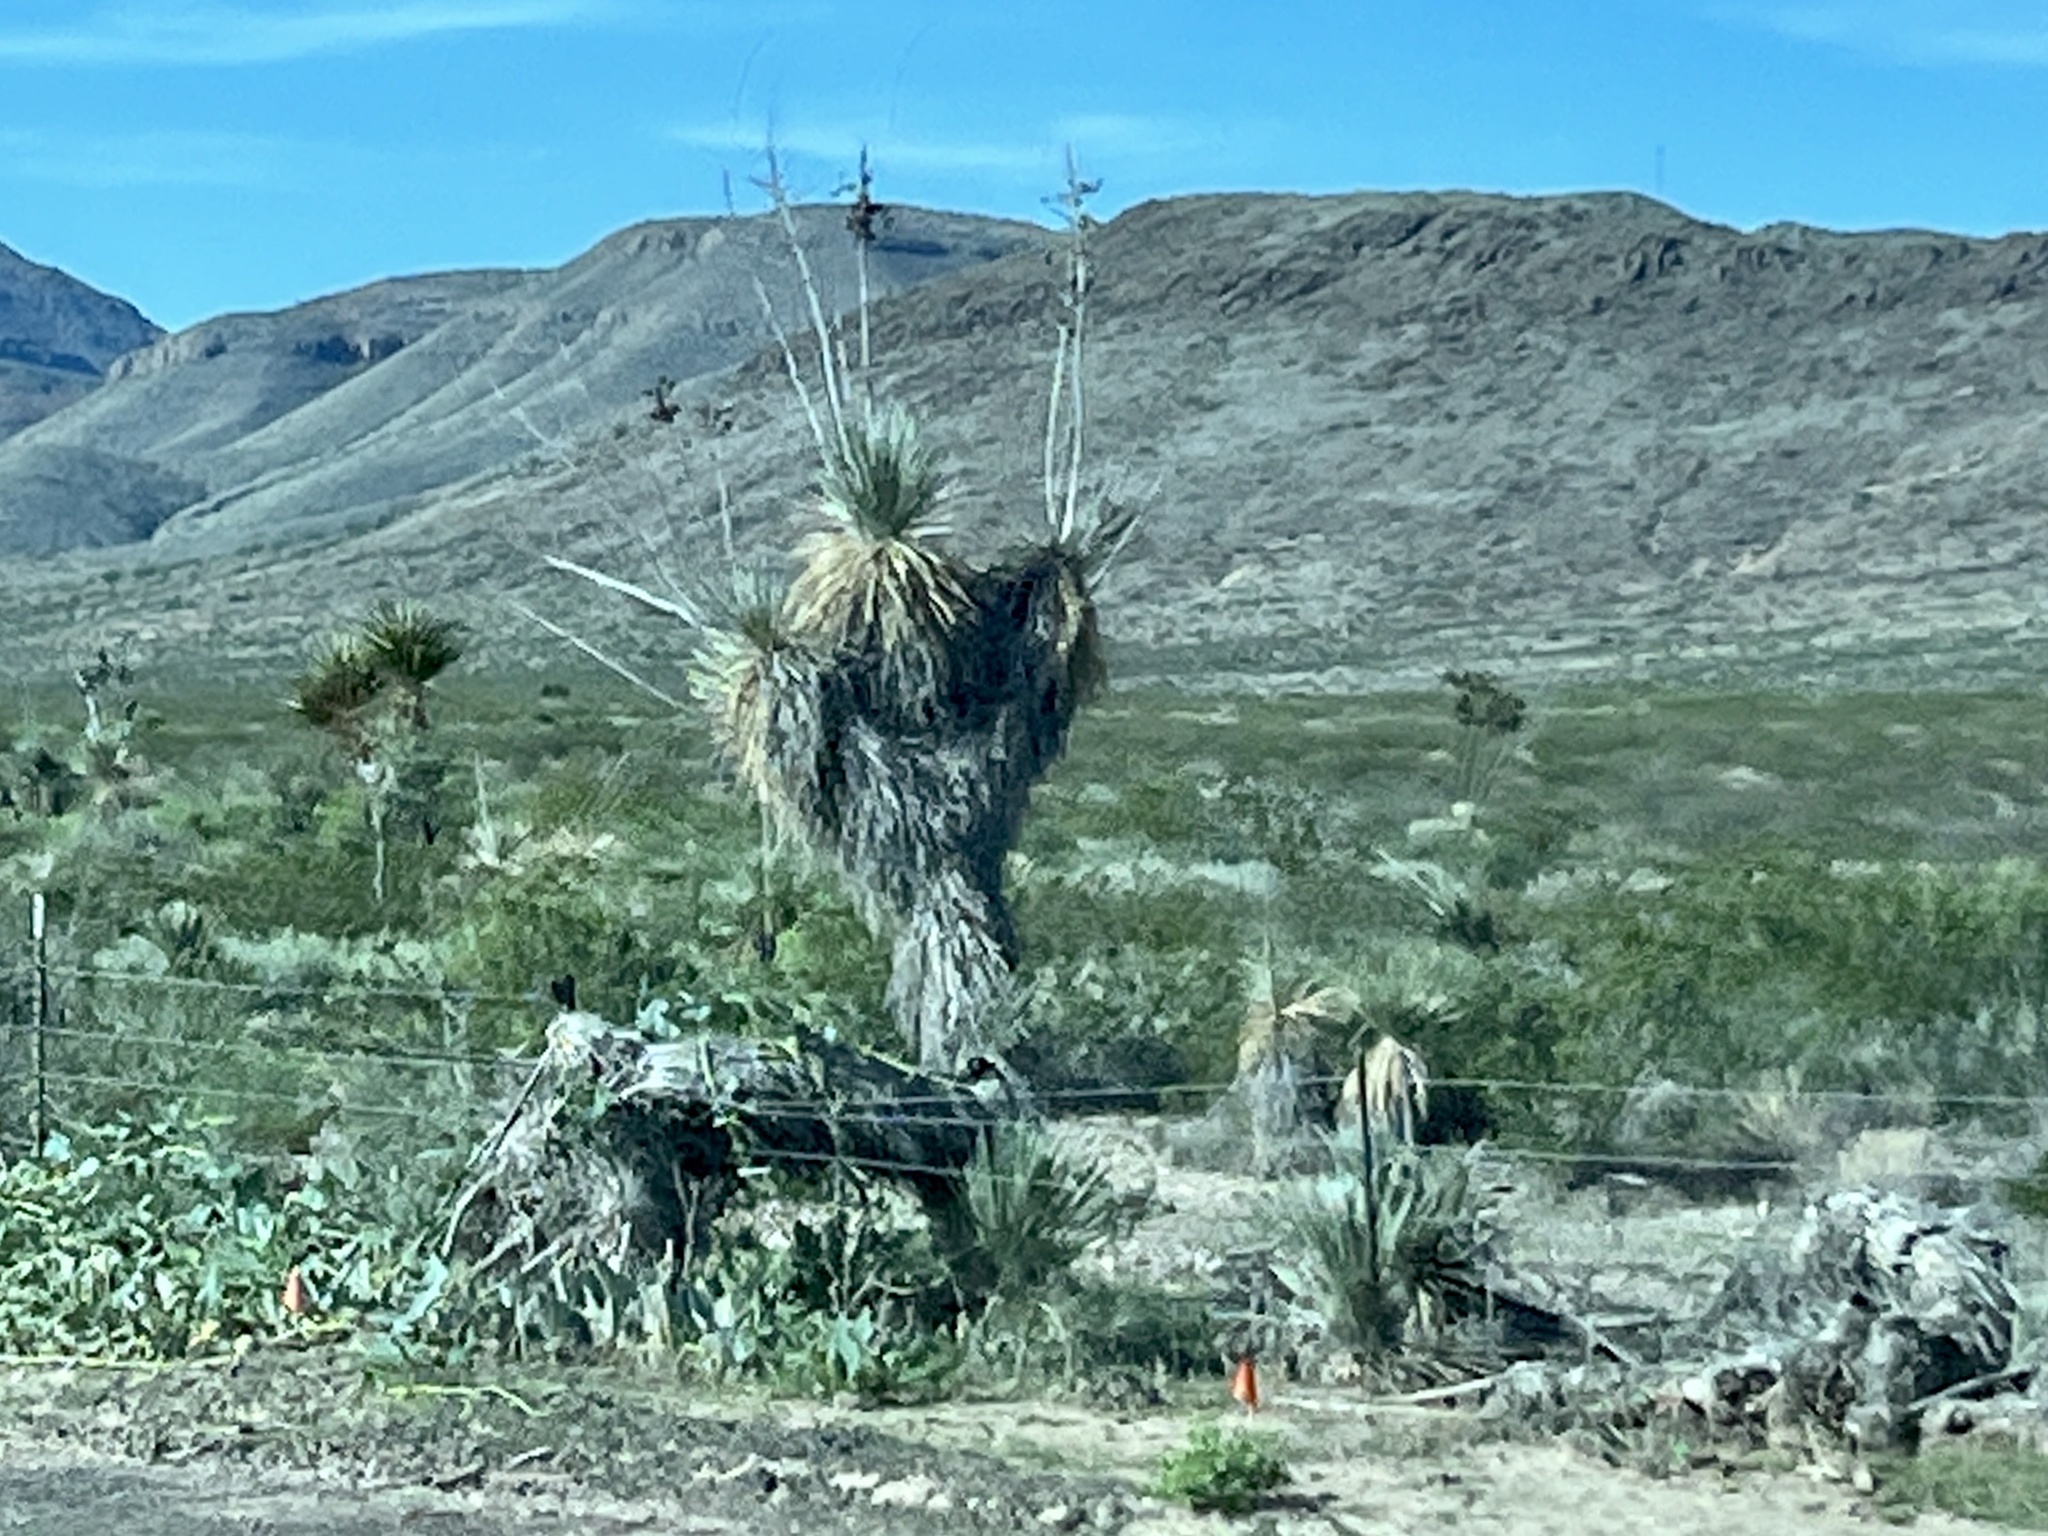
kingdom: Plantae
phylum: Tracheophyta
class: Liliopsida
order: Asparagales
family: Asparagaceae
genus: Yucca
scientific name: Yucca elata
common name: Palmella
